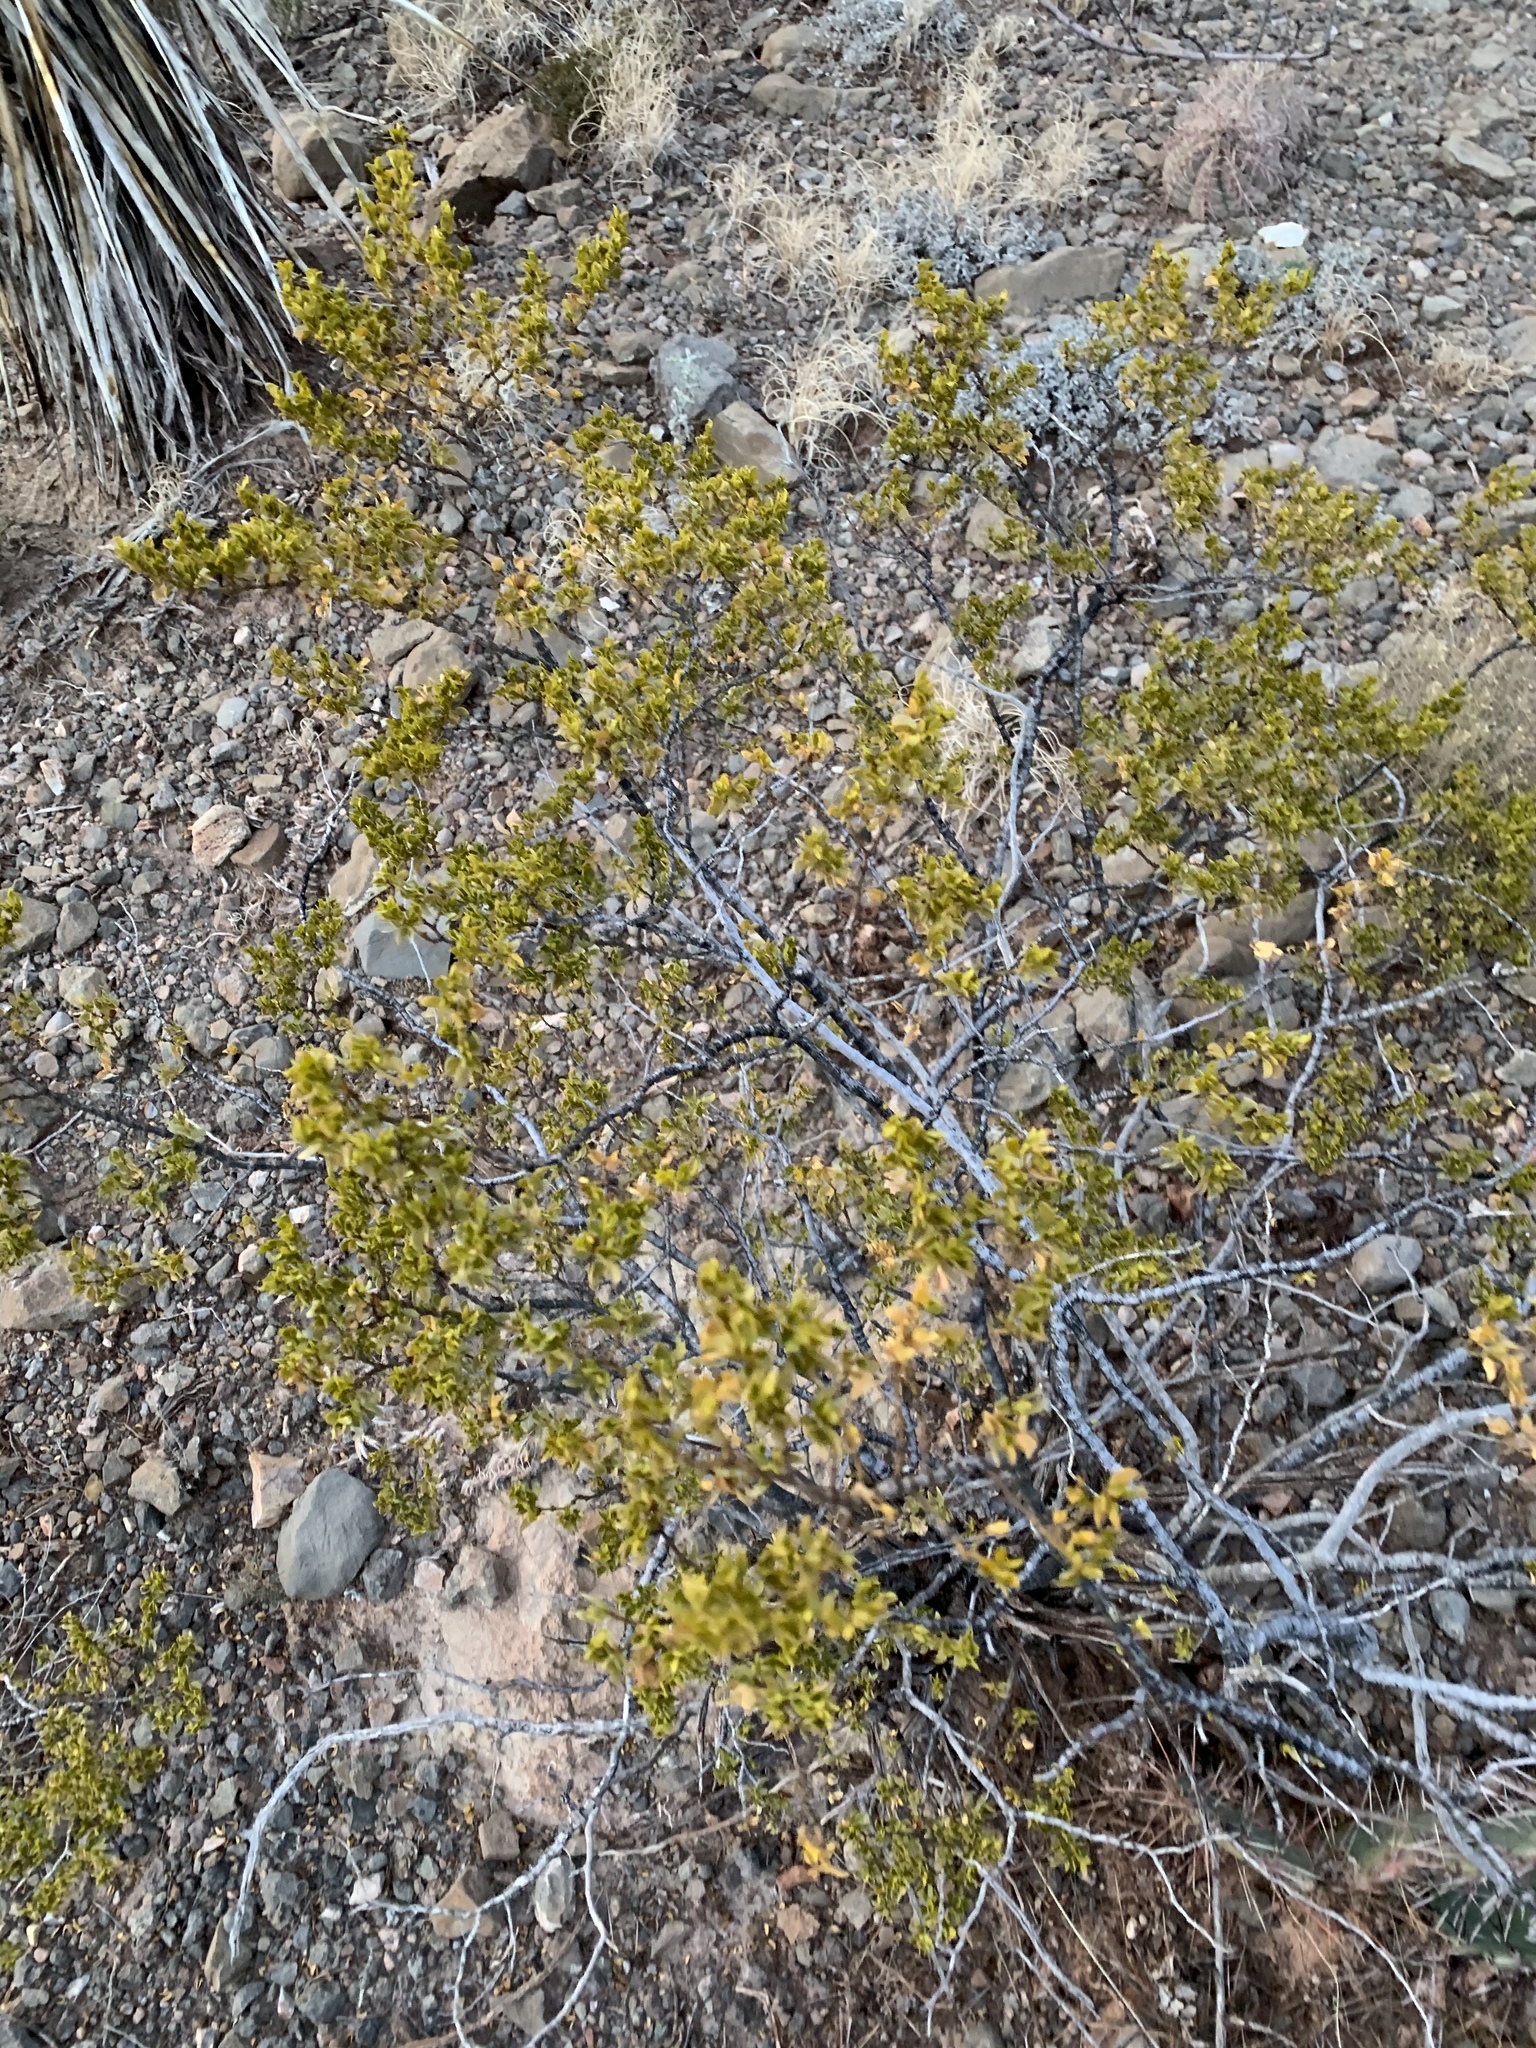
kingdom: Plantae
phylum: Tracheophyta
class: Magnoliopsida
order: Zygophyllales
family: Zygophyllaceae
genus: Larrea
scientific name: Larrea tridentata
